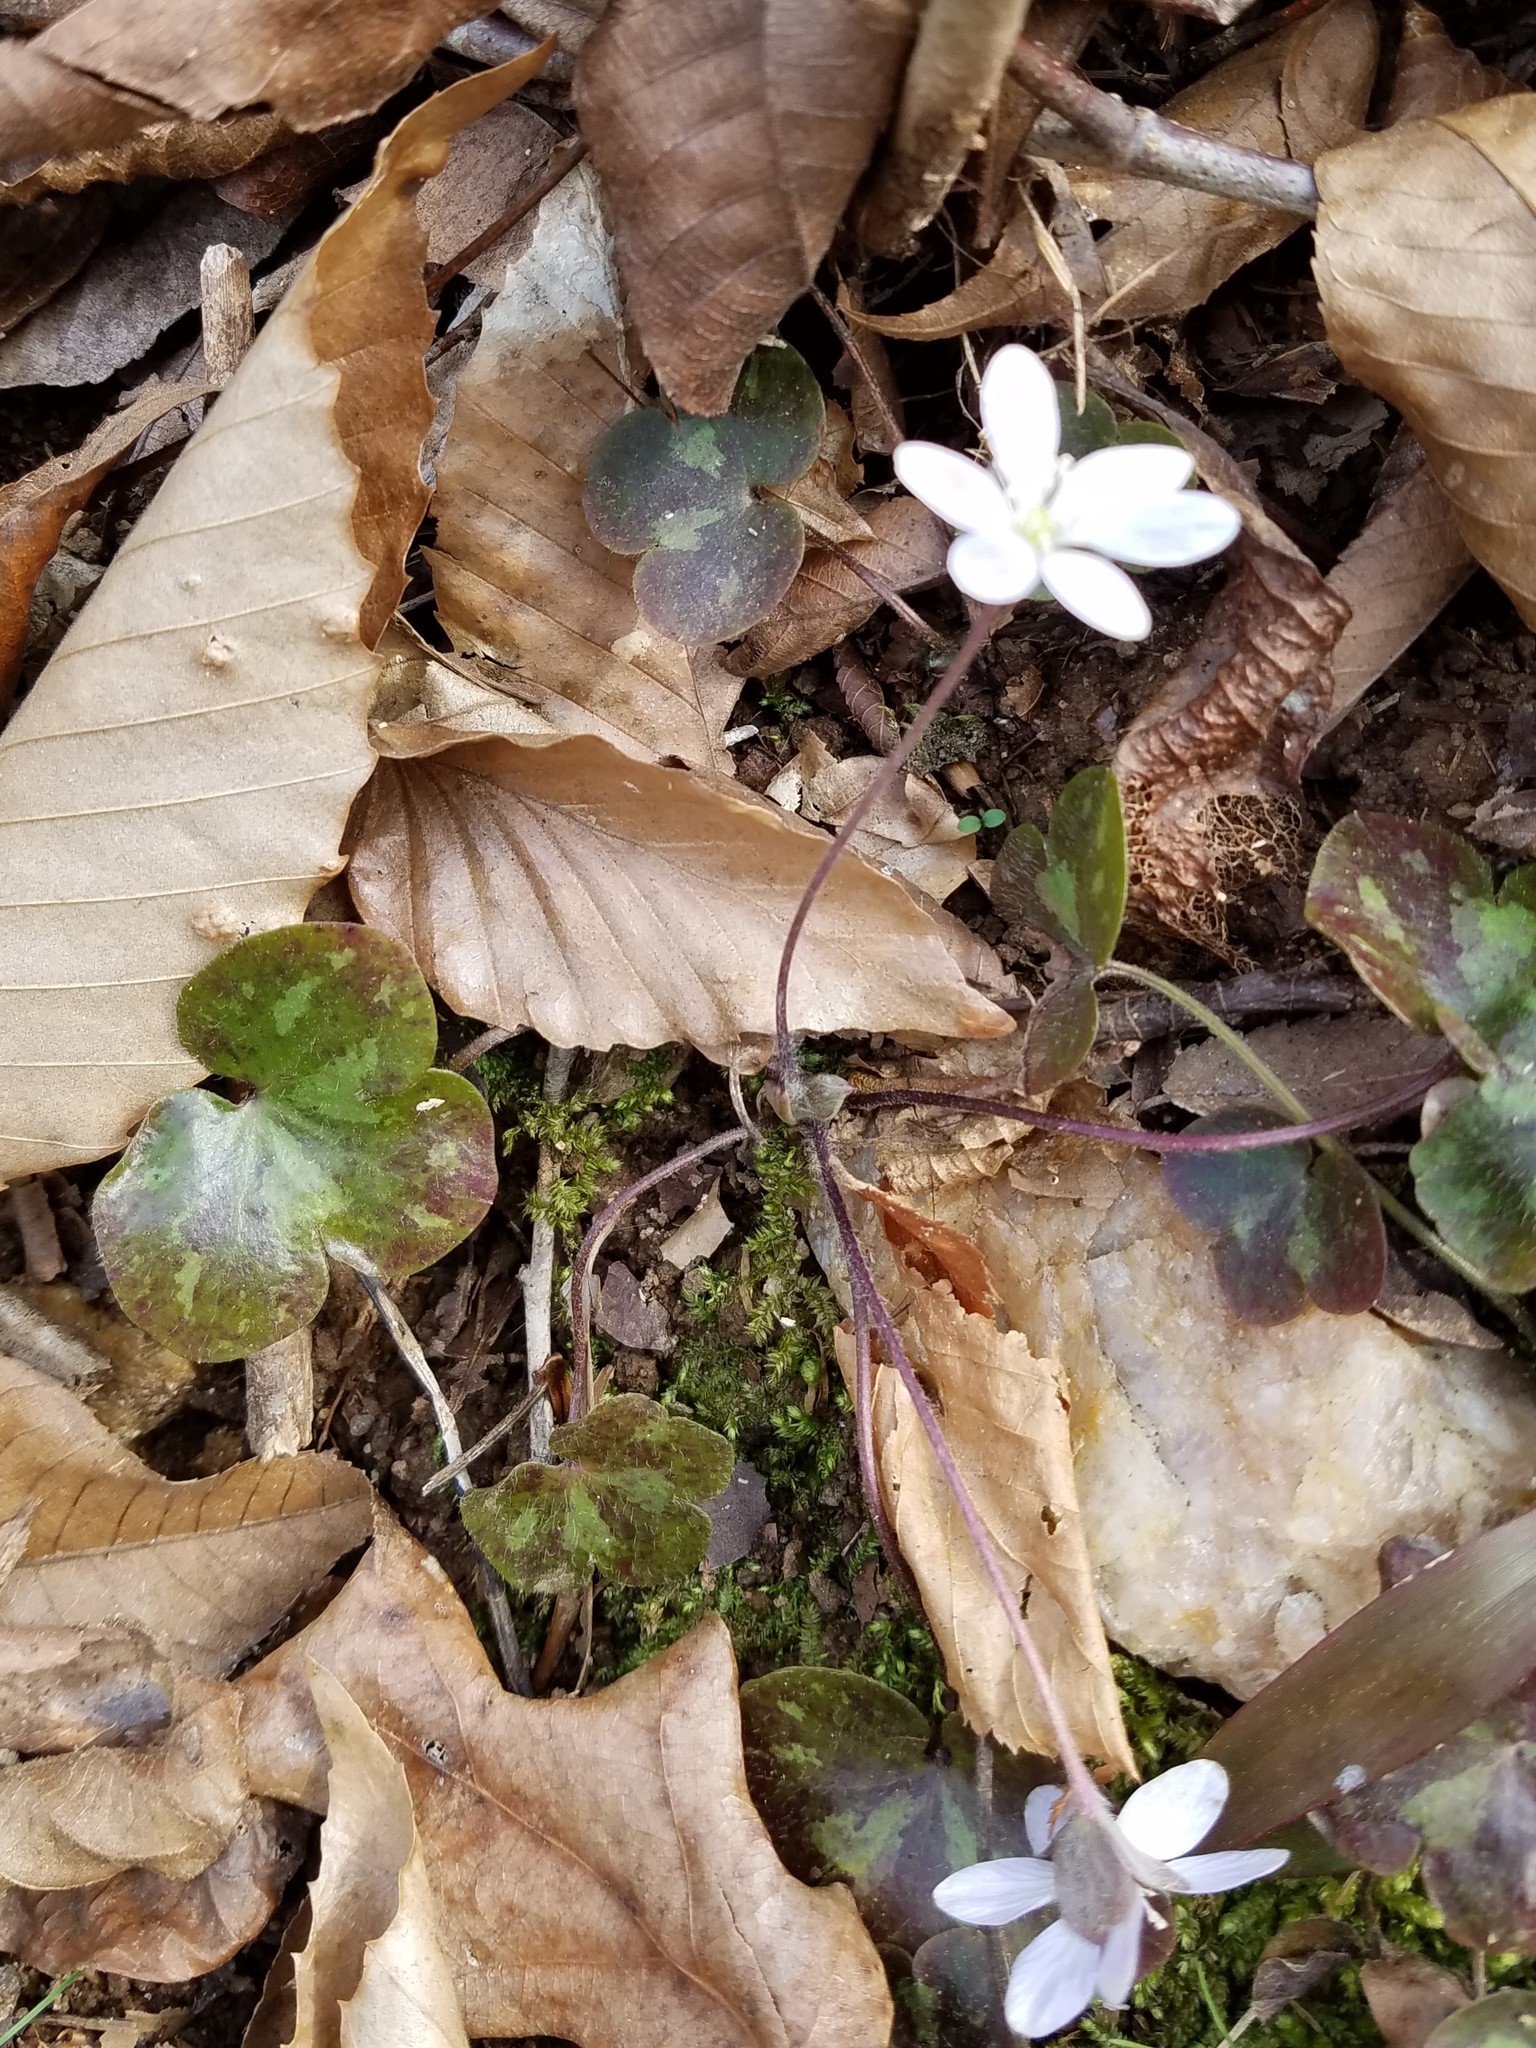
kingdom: Plantae
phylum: Tracheophyta
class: Magnoliopsida
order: Ranunculales
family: Ranunculaceae
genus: Hepatica
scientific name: Hepatica americana
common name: American hepatica
